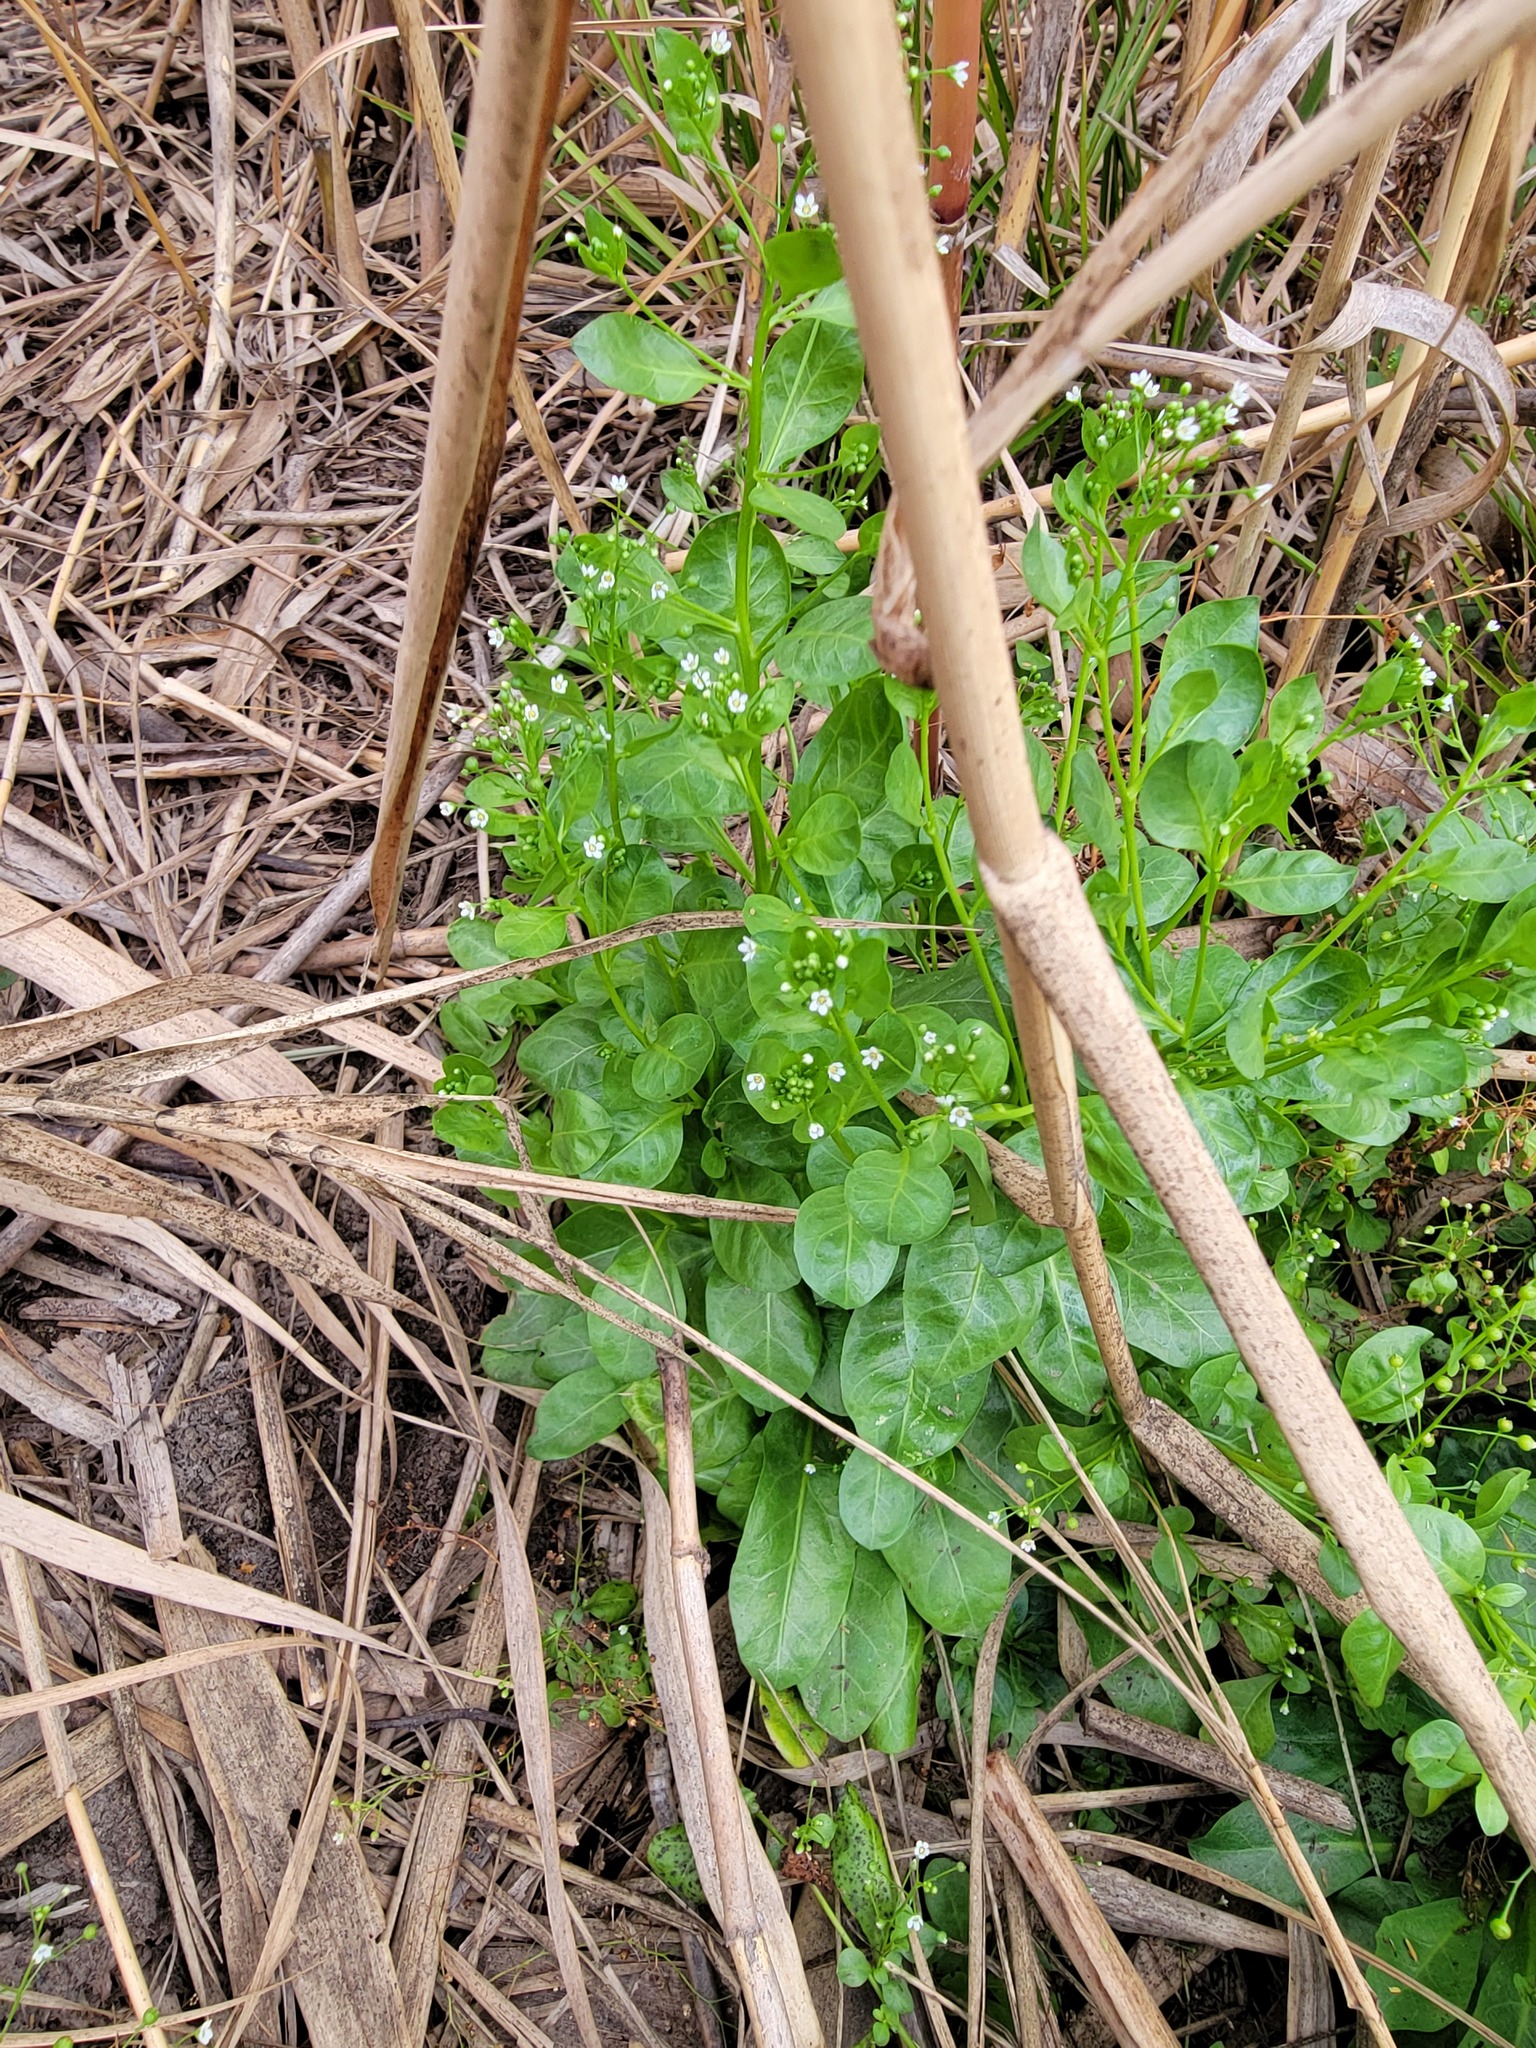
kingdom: Plantae
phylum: Tracheophyta
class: Magnoliopsida
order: Ericales
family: Primulaceae
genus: Samolus
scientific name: Samolus parviflorus
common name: False water pimpernel
